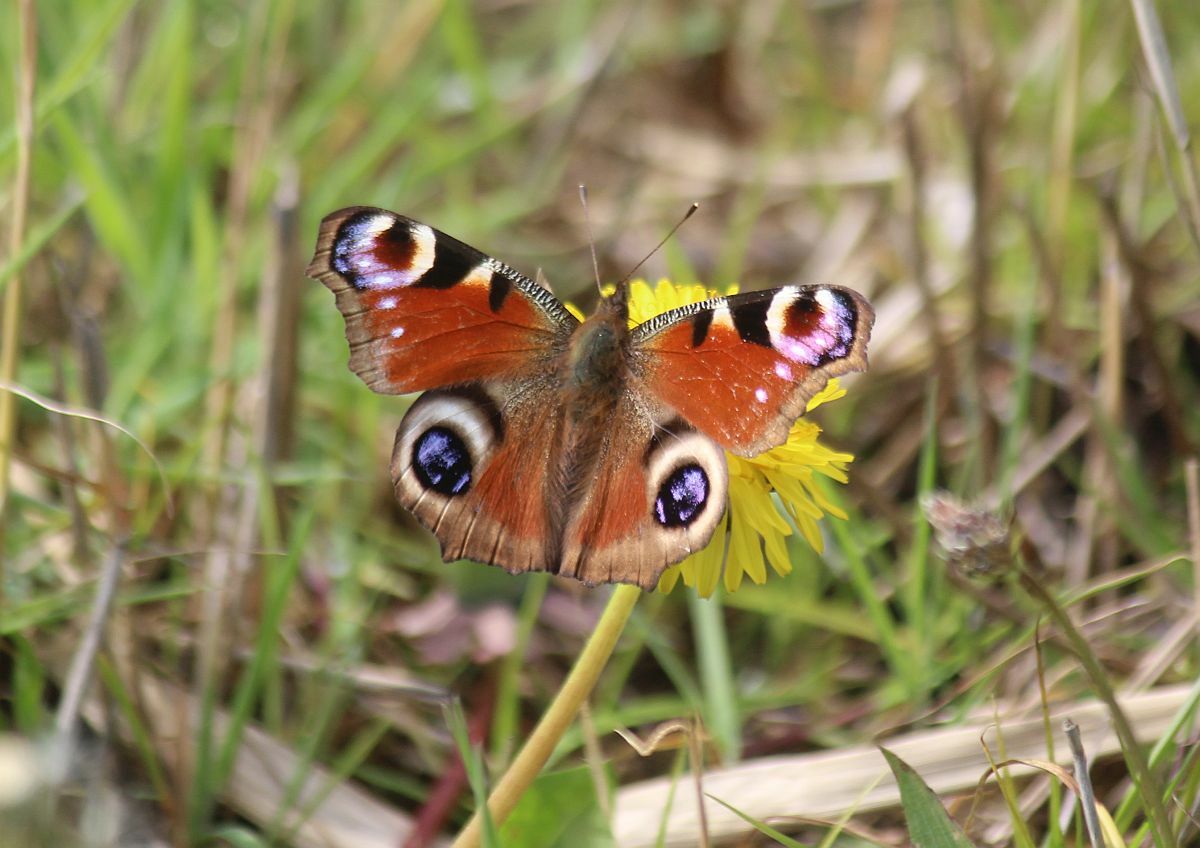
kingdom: Animalia
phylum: Arthropoda
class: Insecta
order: Lepidoptera
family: Nymphalidae
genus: Aglais
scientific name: Aglais io
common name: Peacock
